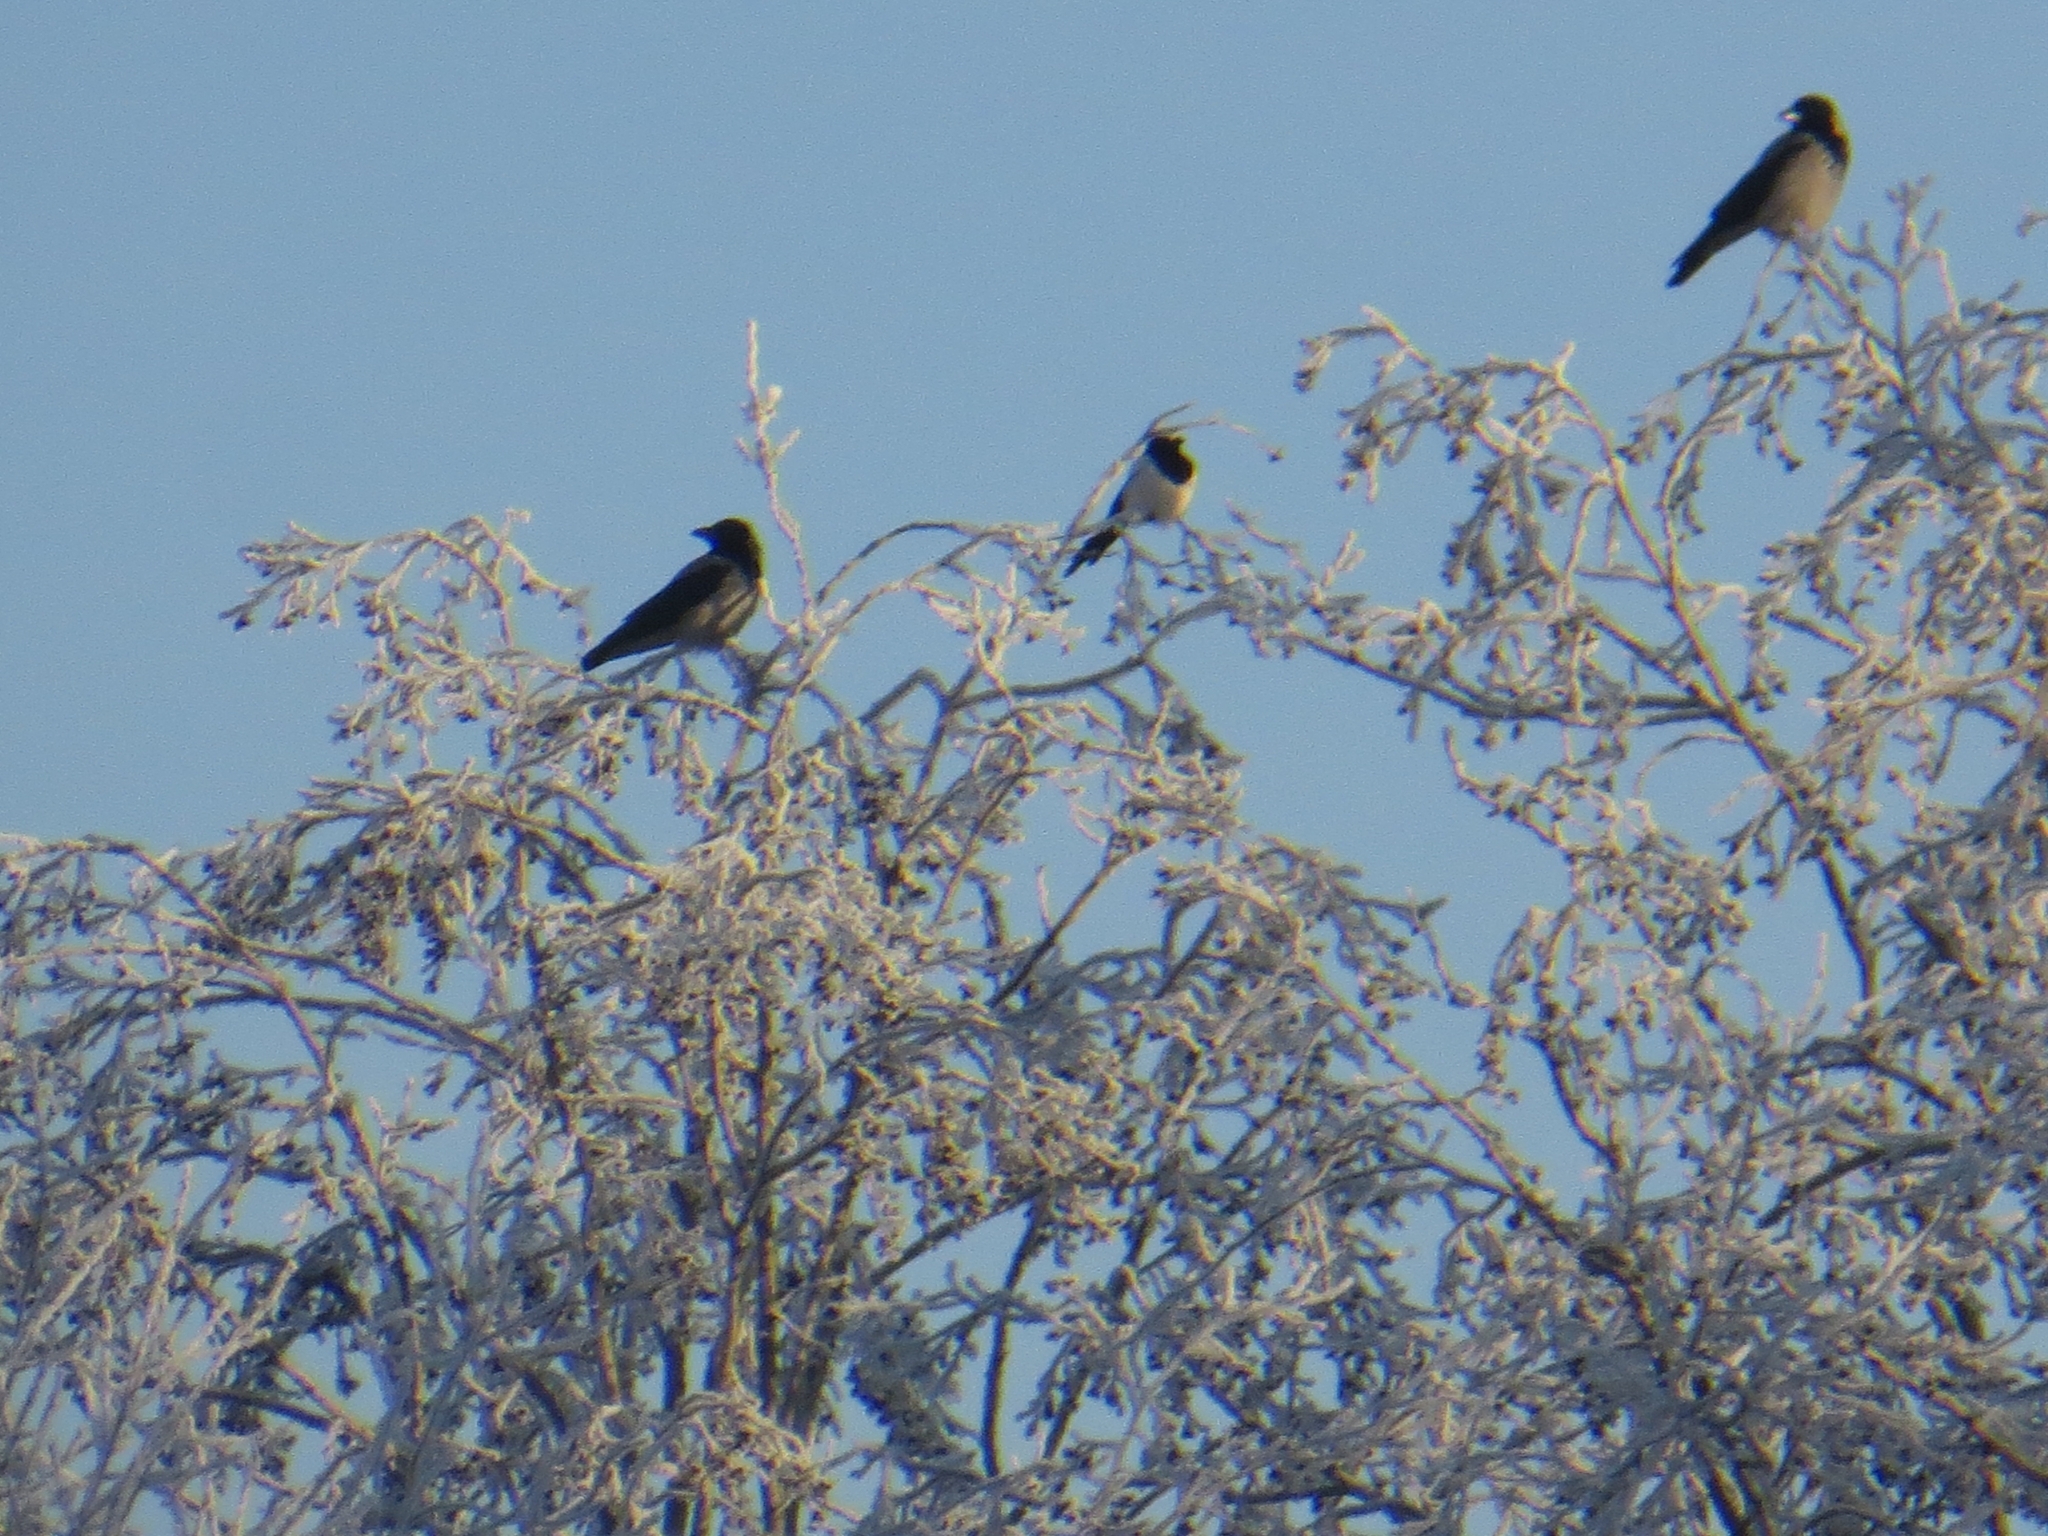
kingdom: Animalia
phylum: Chordata
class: Aves
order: Passeriformes
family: Corvidae
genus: Corvus
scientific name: Corvus cornix
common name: Hooded crow
